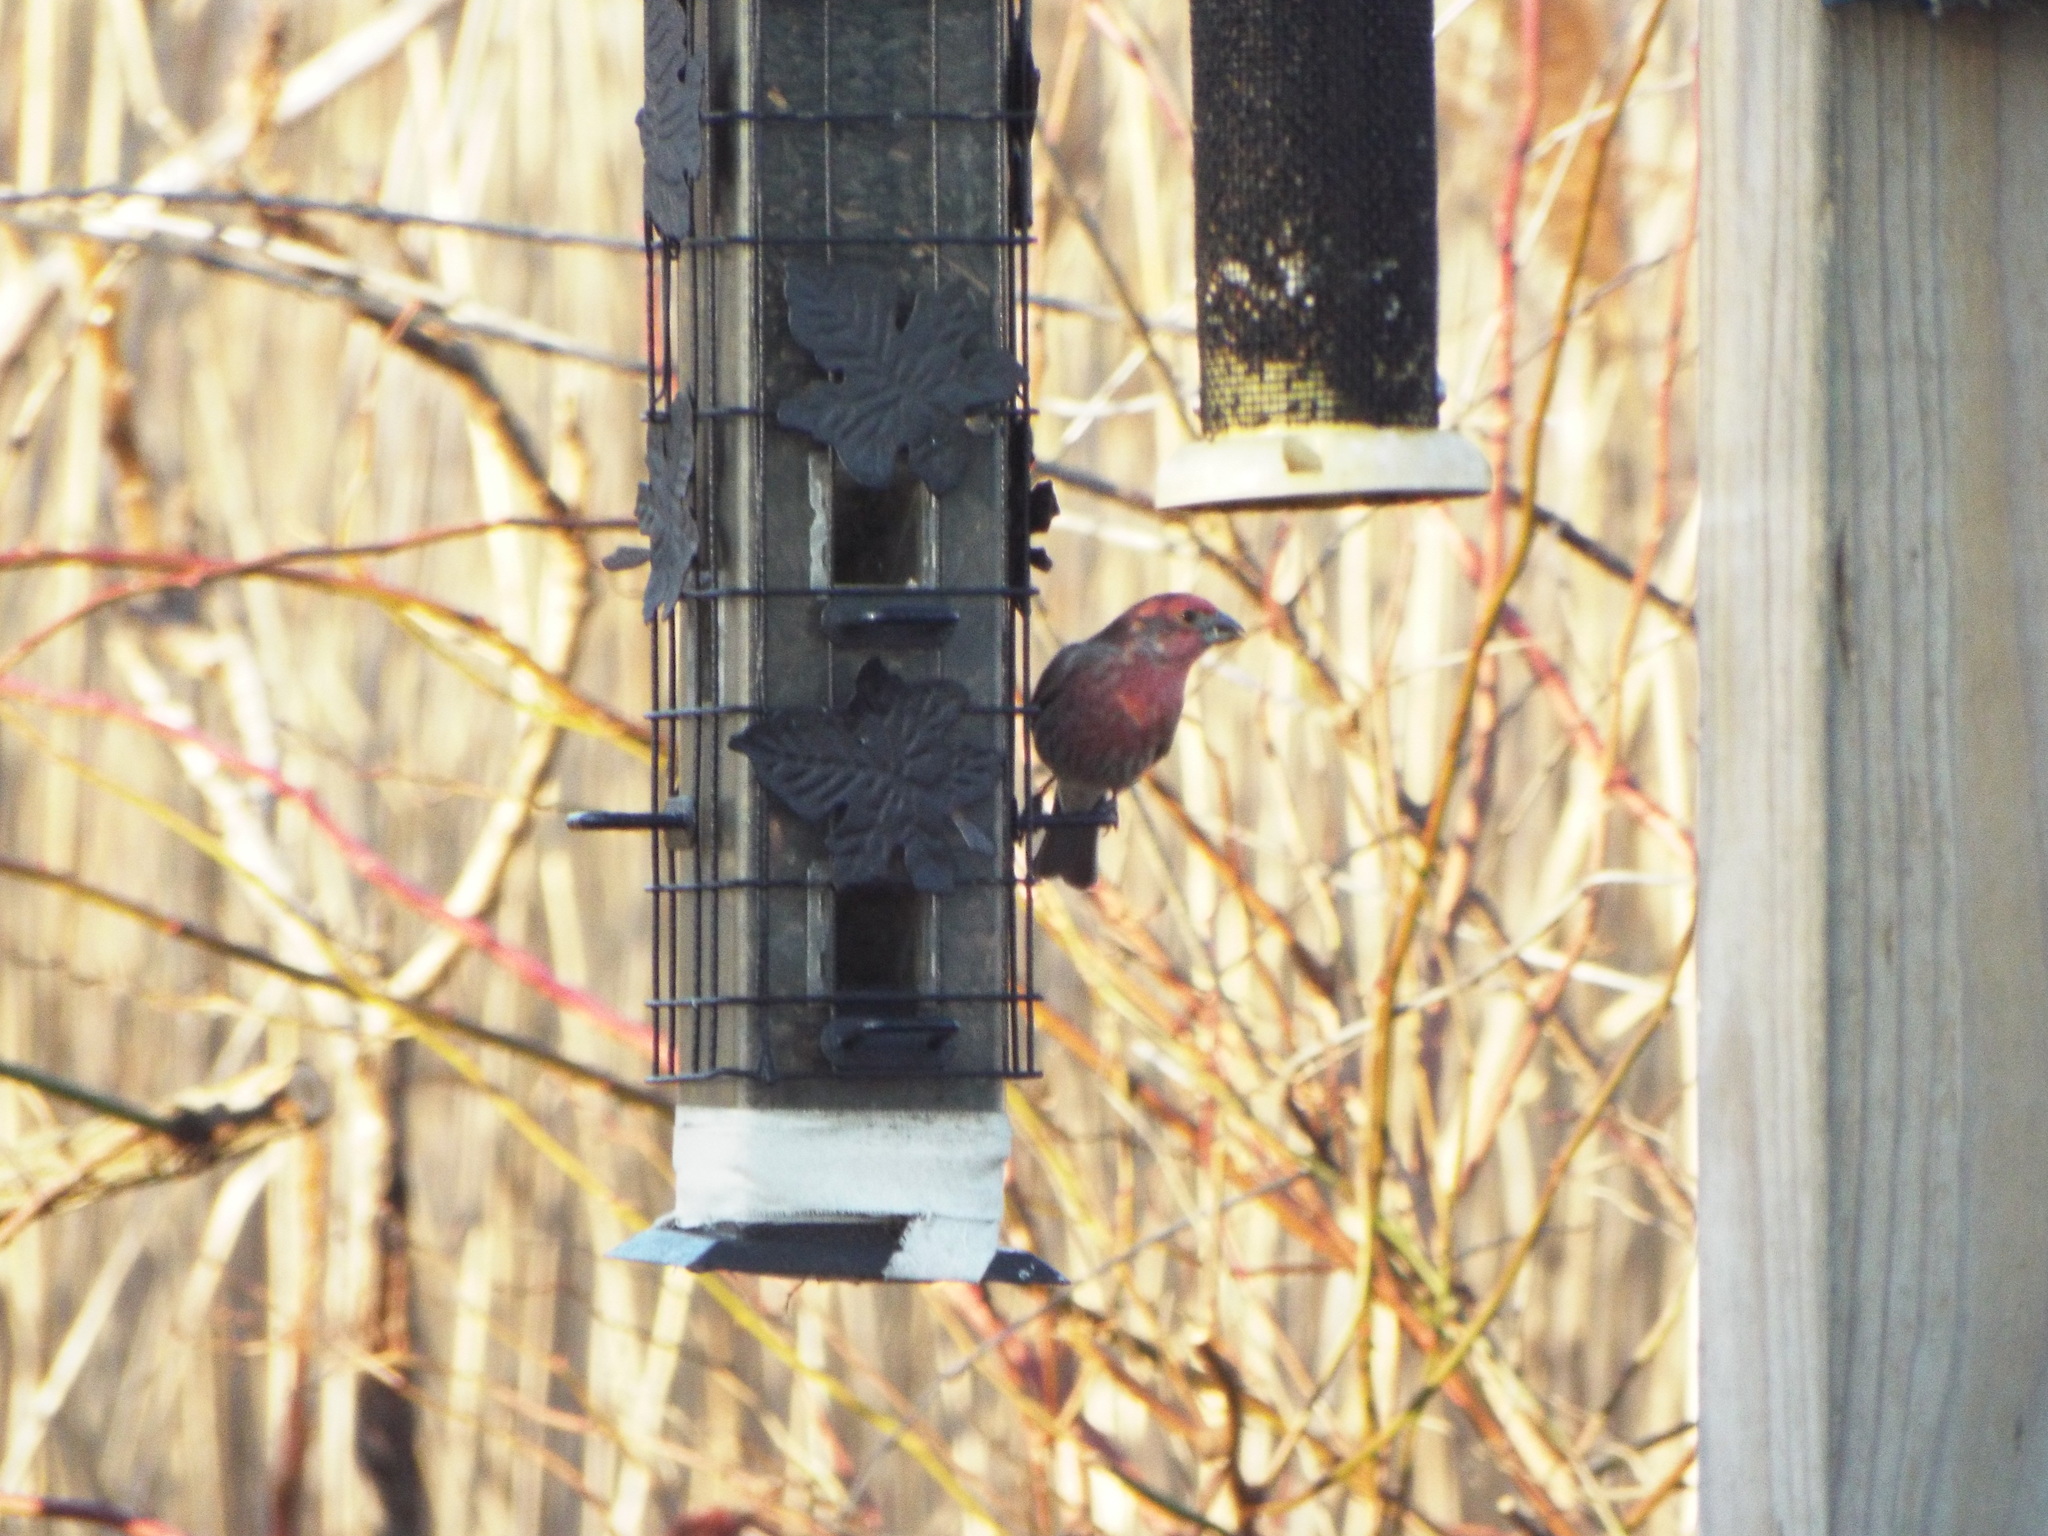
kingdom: Animalia
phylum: Chordata
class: Aves
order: Passeriformes
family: Fringillidae
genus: Haemorhous
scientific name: Haemorhous mexicanus
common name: House finch
